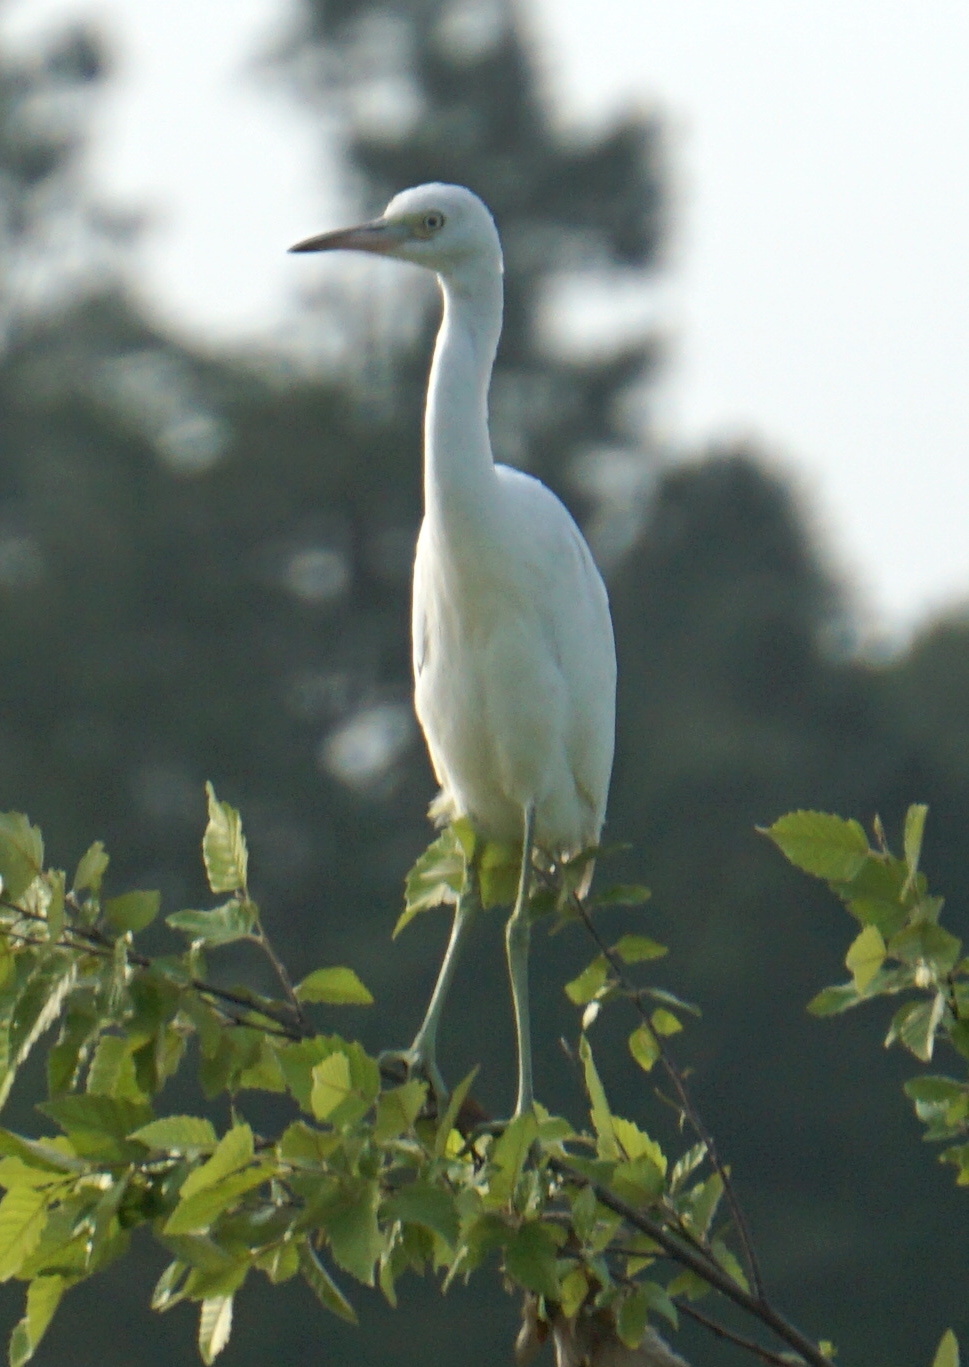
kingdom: Animalia
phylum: Chordata
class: Aves
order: Pelecaniformes
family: Ardeidae
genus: Egretta
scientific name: Egretta caerulea
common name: Little blue heron
